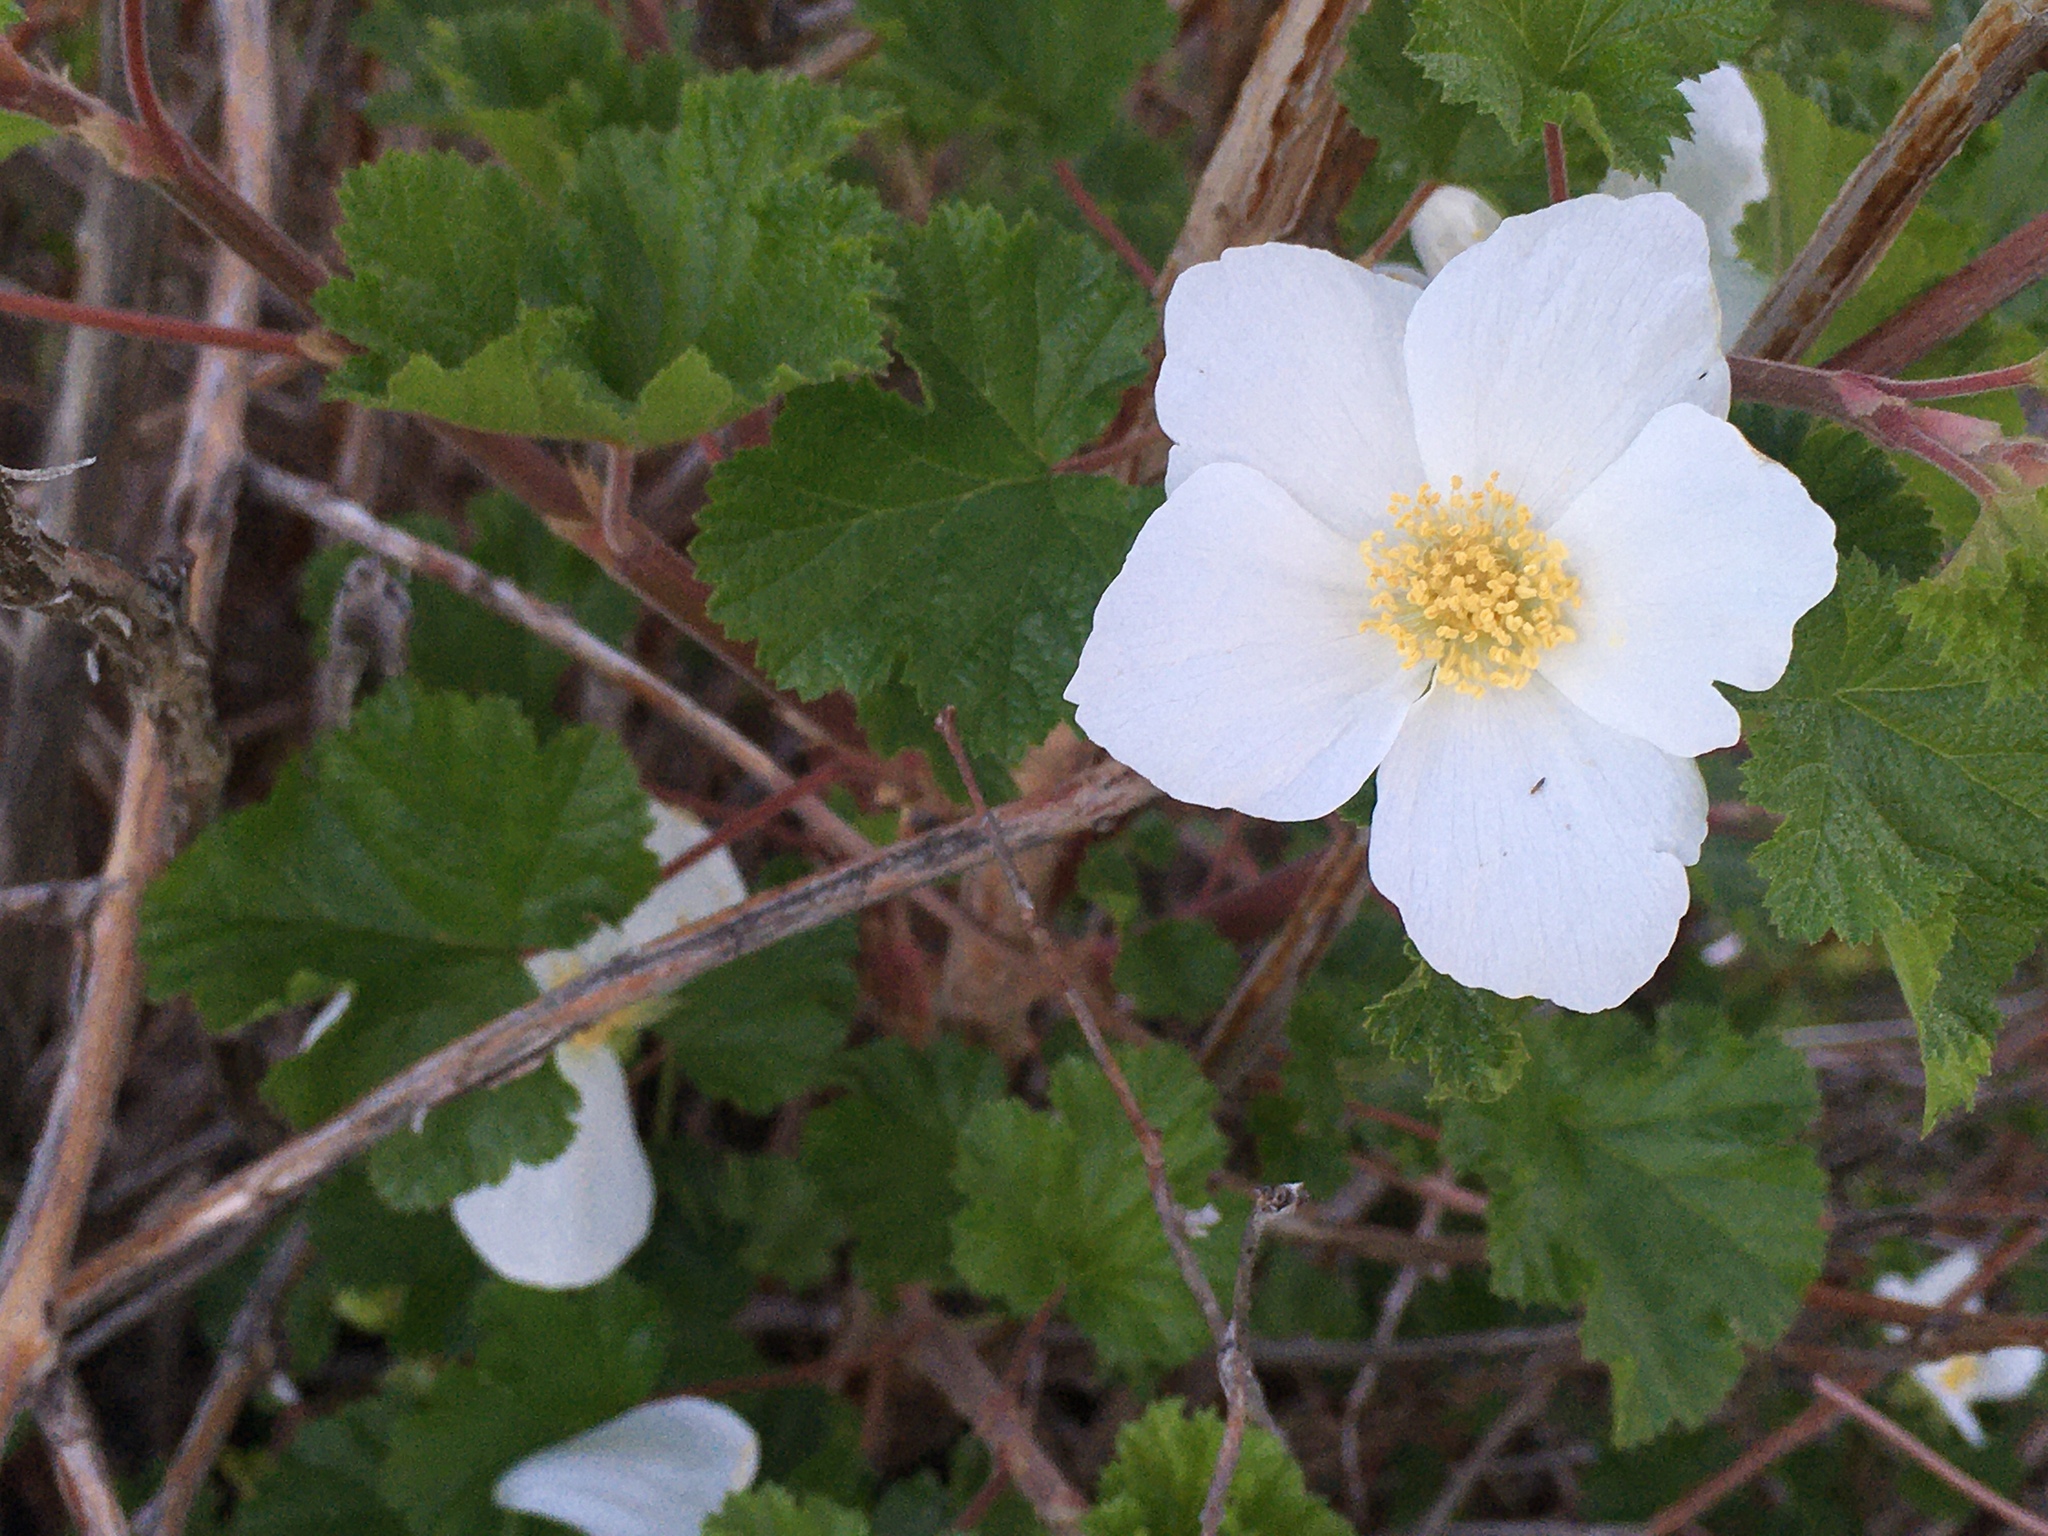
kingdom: Plantae
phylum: Tracheophyta
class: Magnoliopsida
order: Rosales
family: Rosaceae
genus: Rubus
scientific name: Rubus deliciosus
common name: Rocky mountain raspberry
